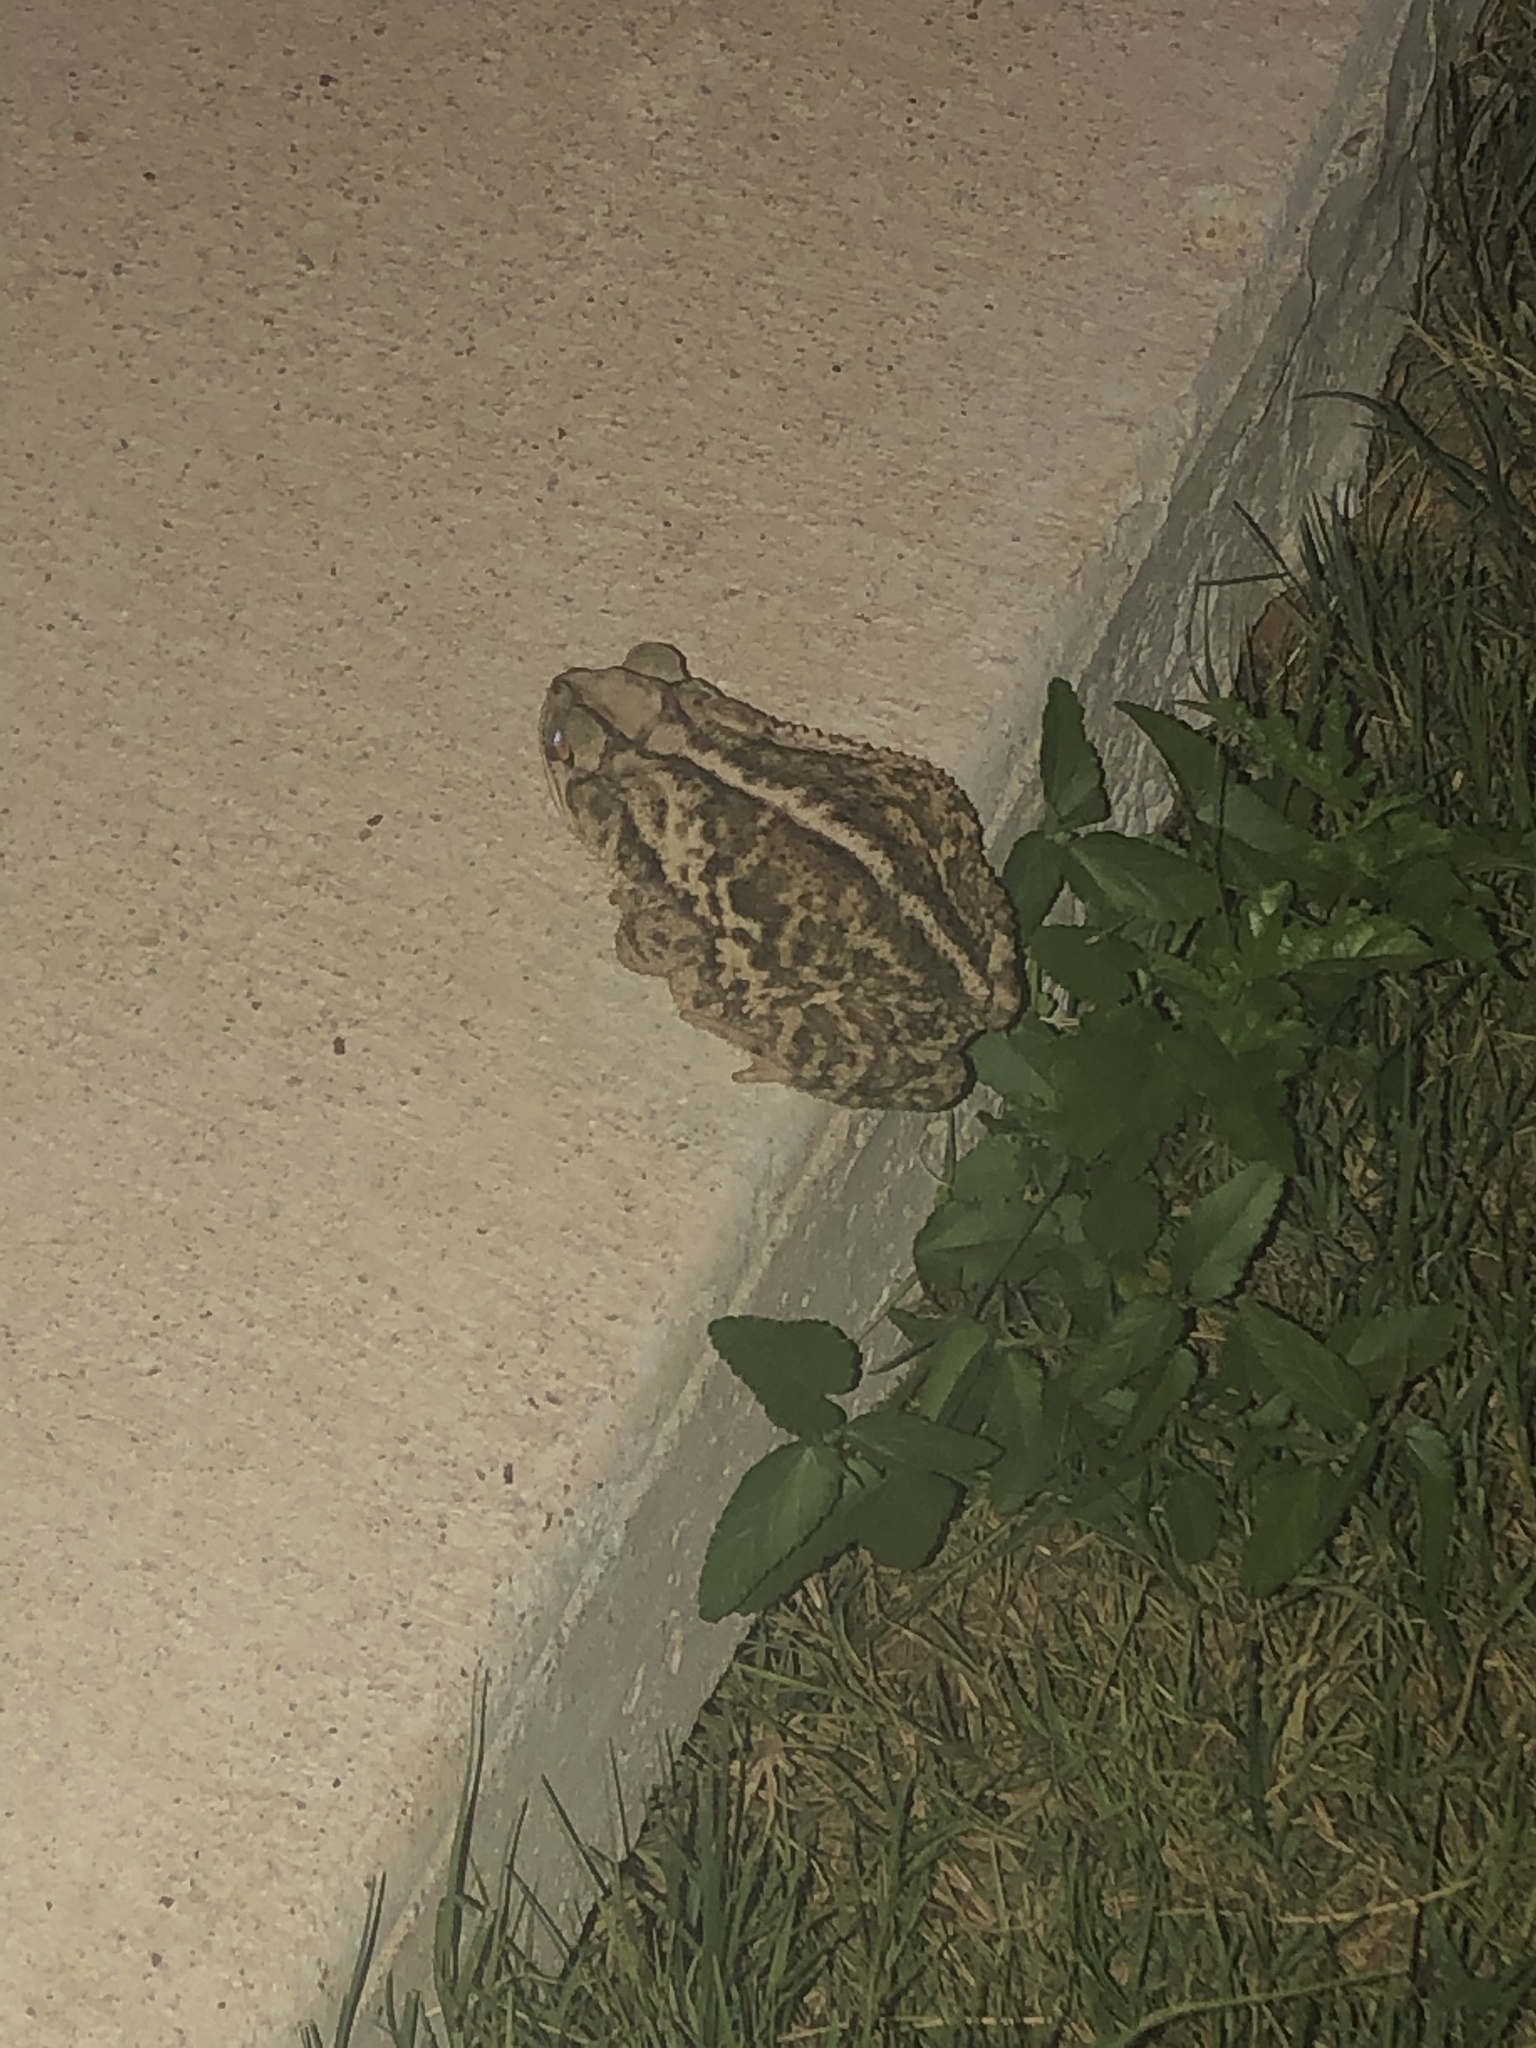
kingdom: Animalia
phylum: Chordata
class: Amphibia
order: Anura
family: Bufonidae
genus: Incilius
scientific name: Incilius nebulifer
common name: Gulf coast toad
